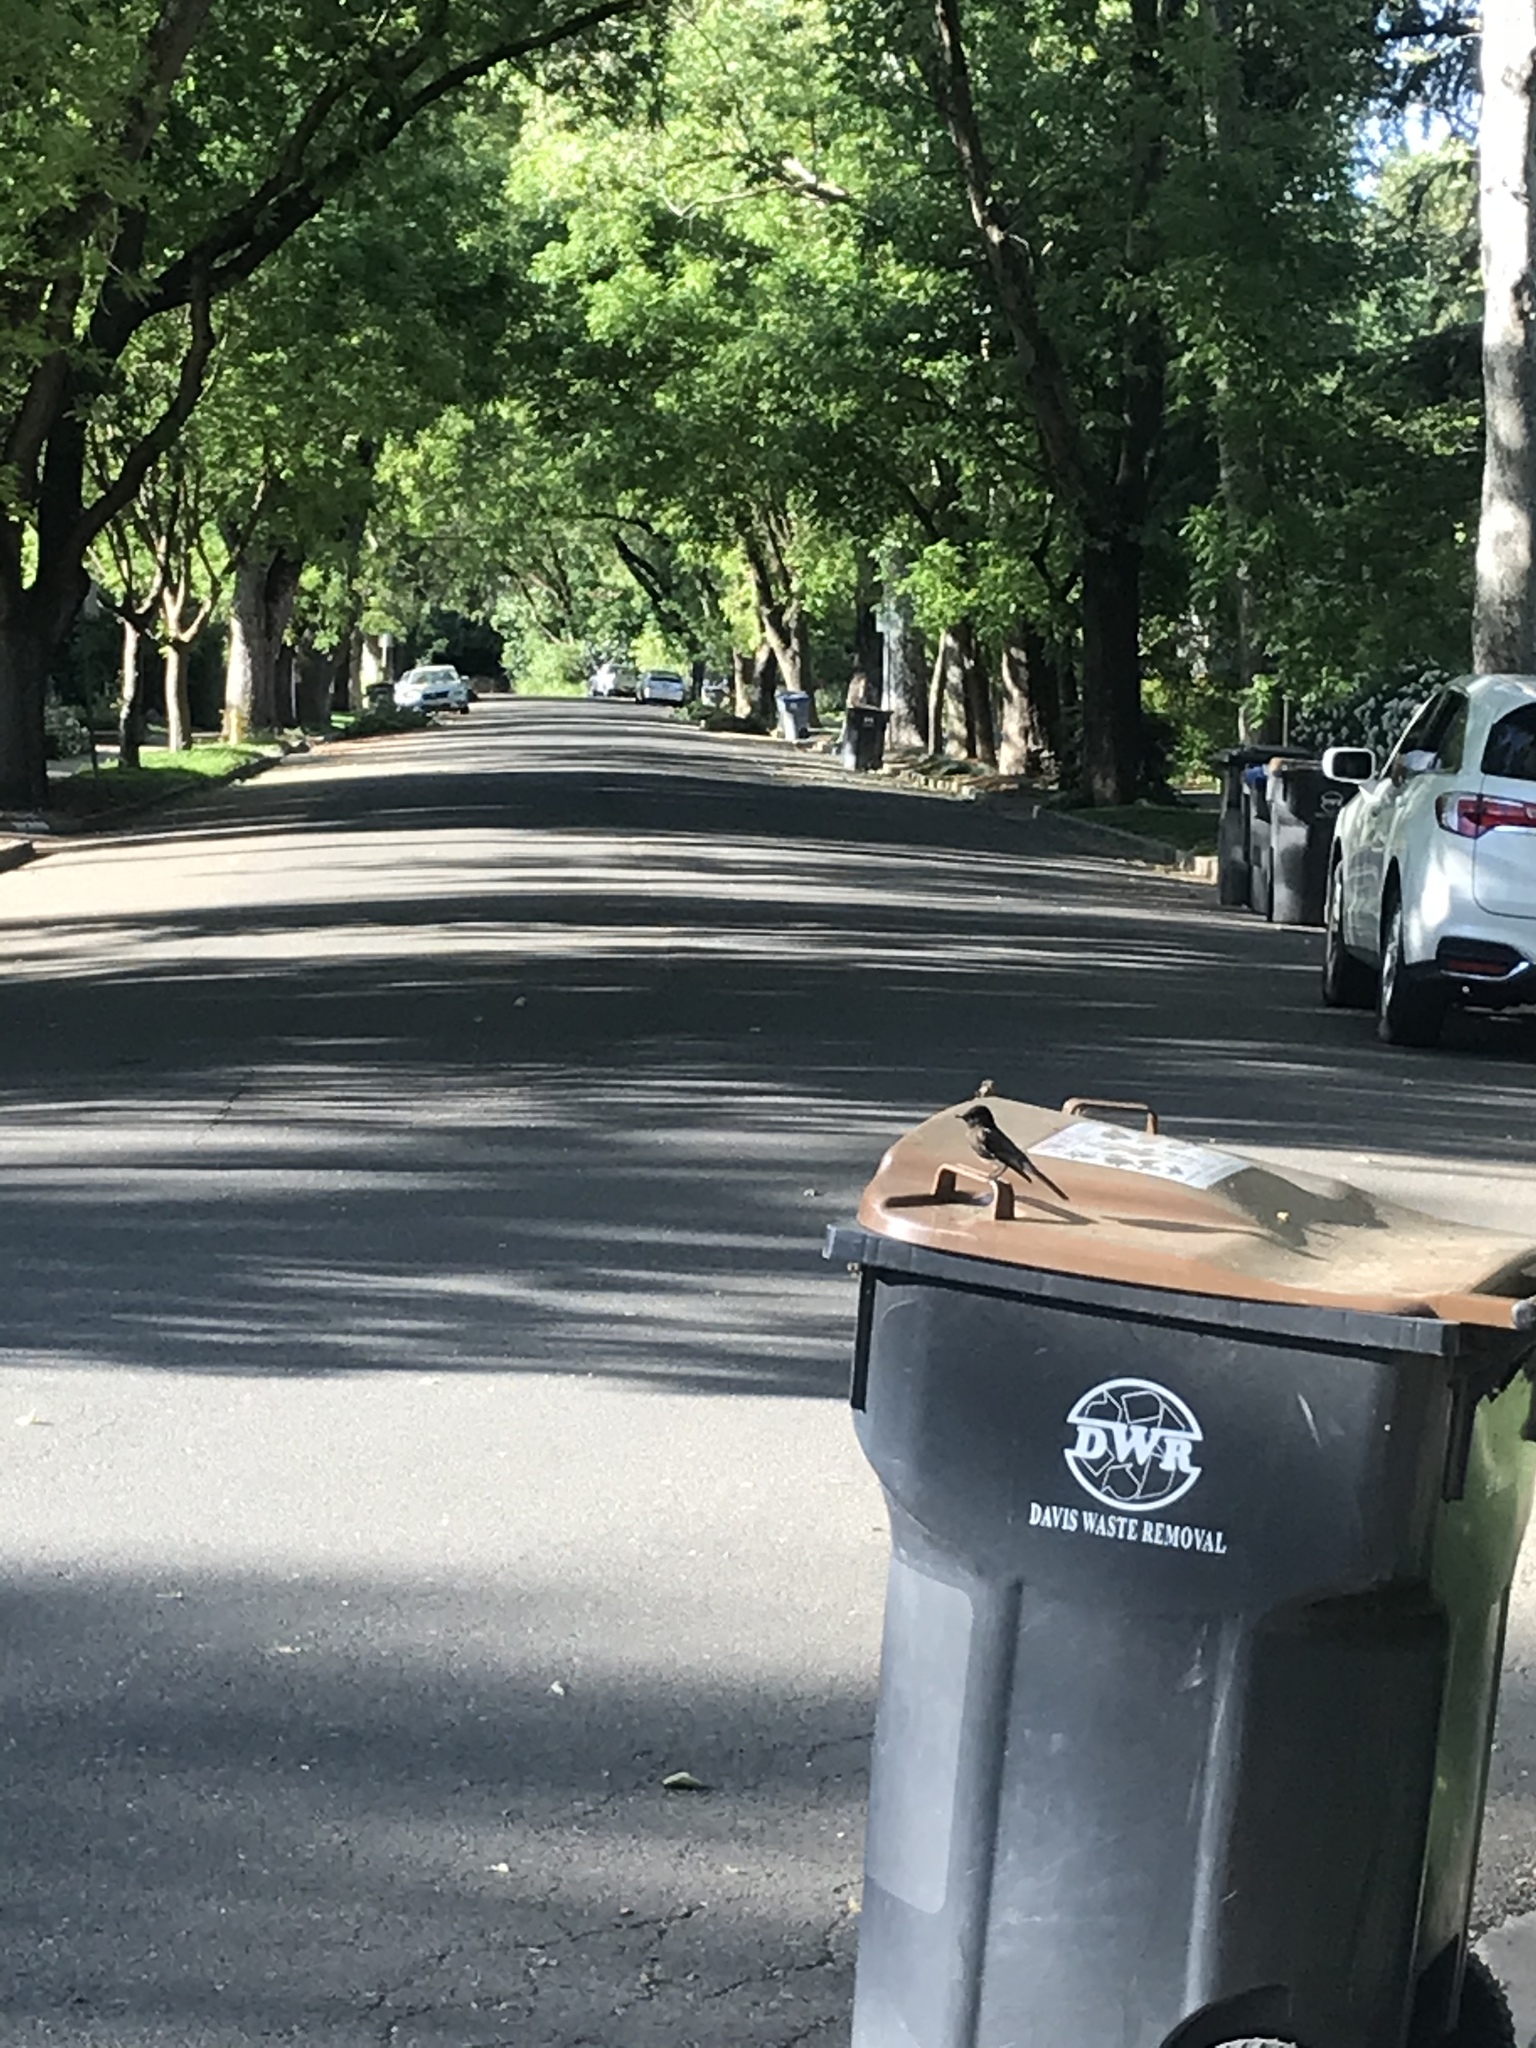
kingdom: Animalia
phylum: Chordata
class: Aves
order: Passeriformes
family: Tyrannidae
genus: Sayornis
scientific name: Sayornis nigricans
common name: Black phoebe
